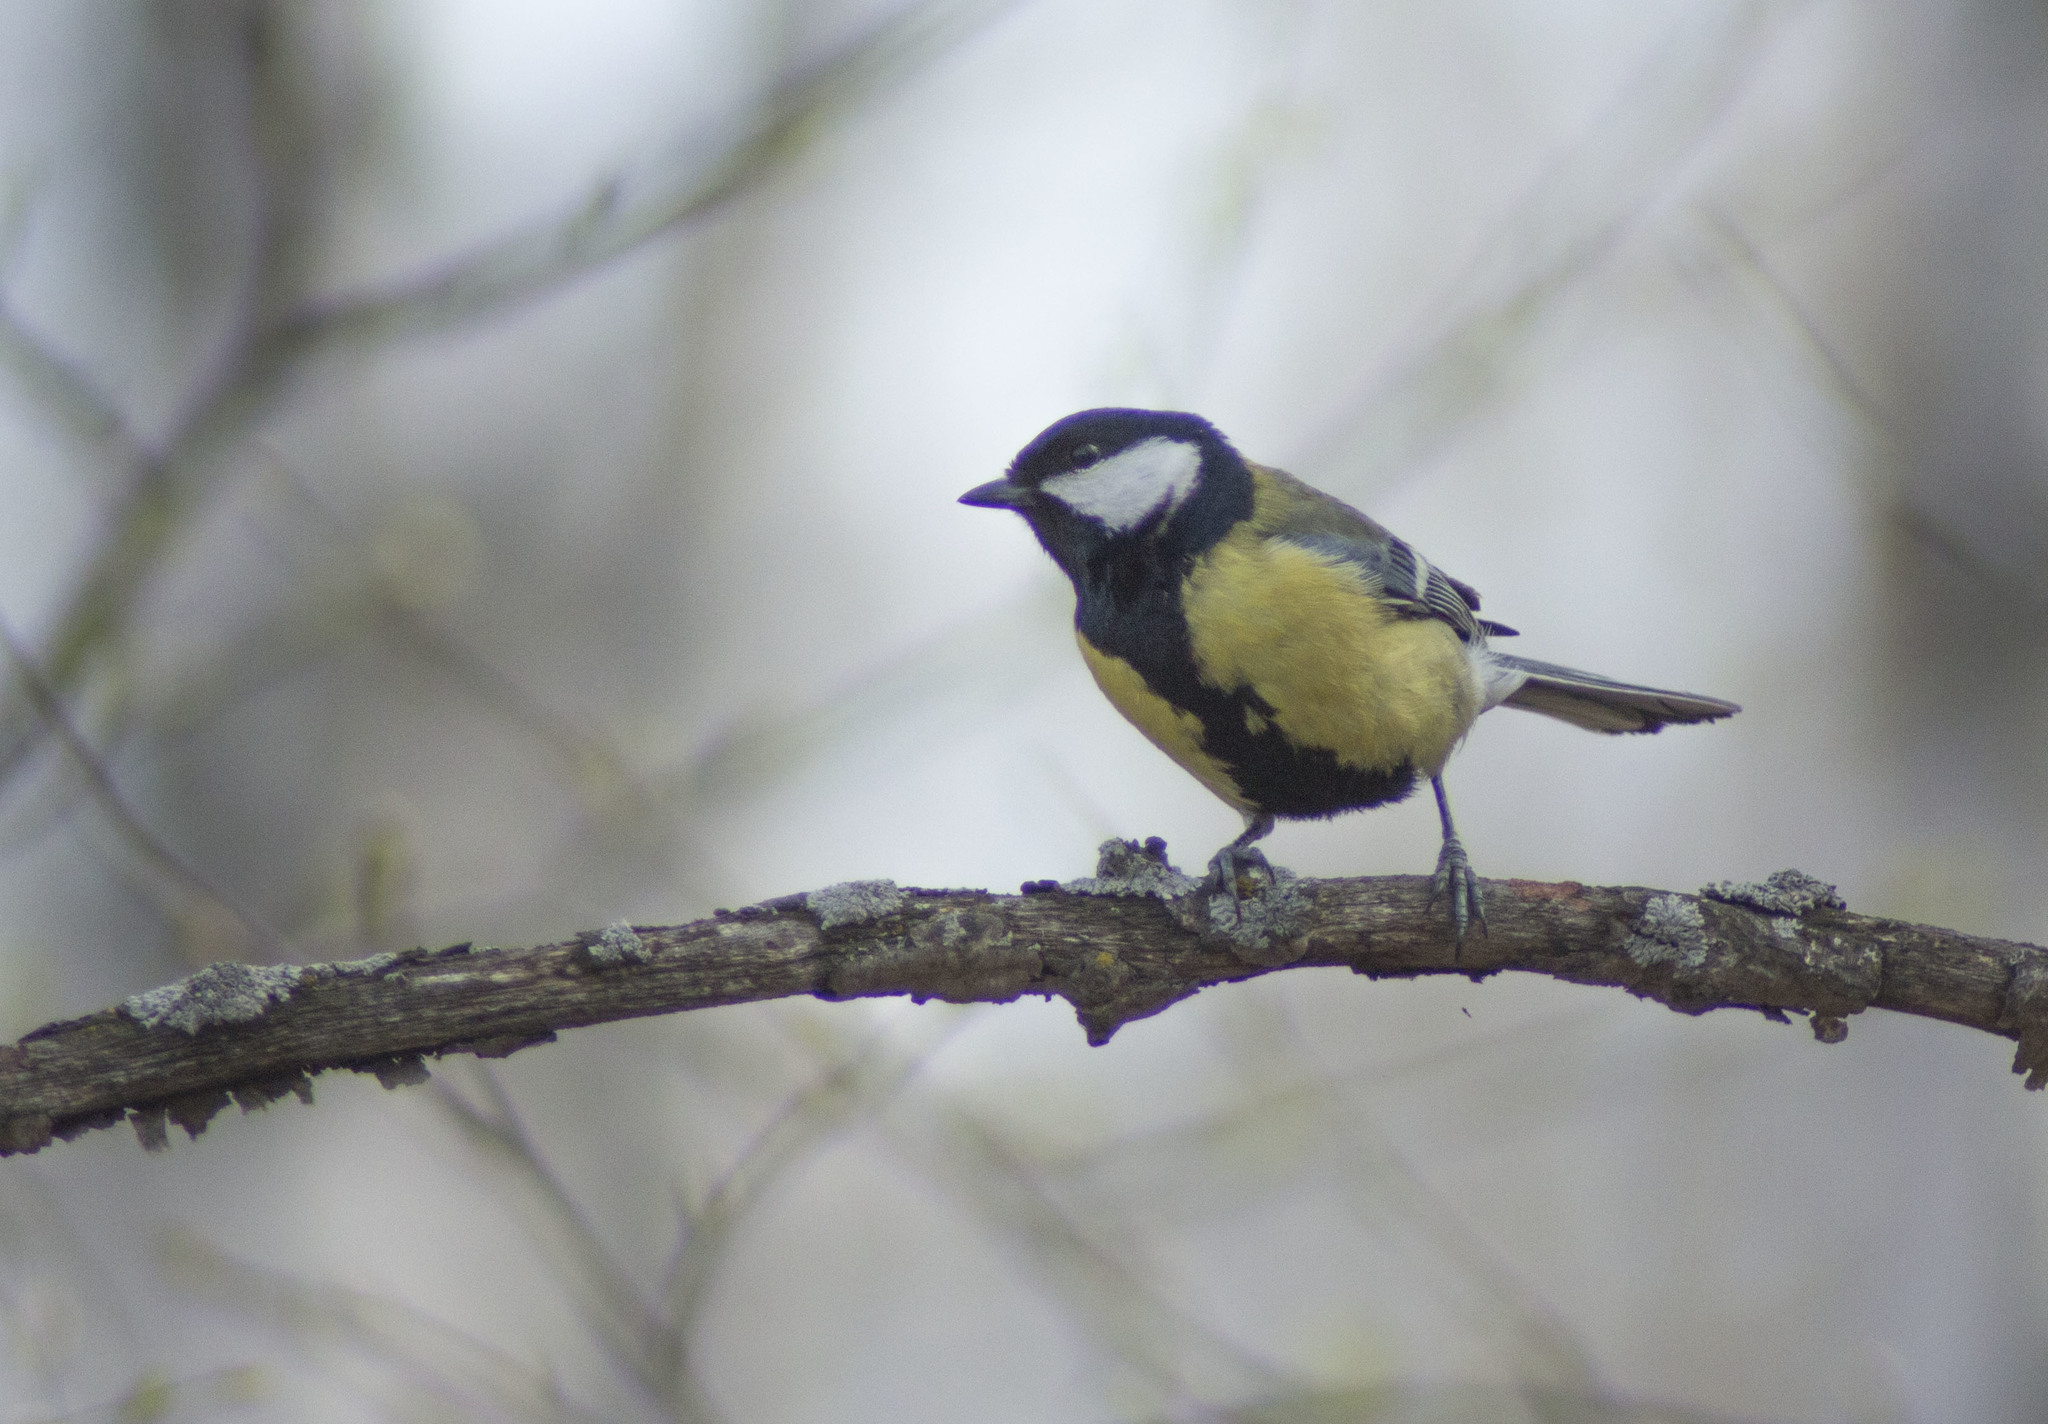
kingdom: Animalia
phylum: Chordata
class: Aves
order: Passeriformes
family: Paridae
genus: Parus
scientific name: Parus major
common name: Great tit
